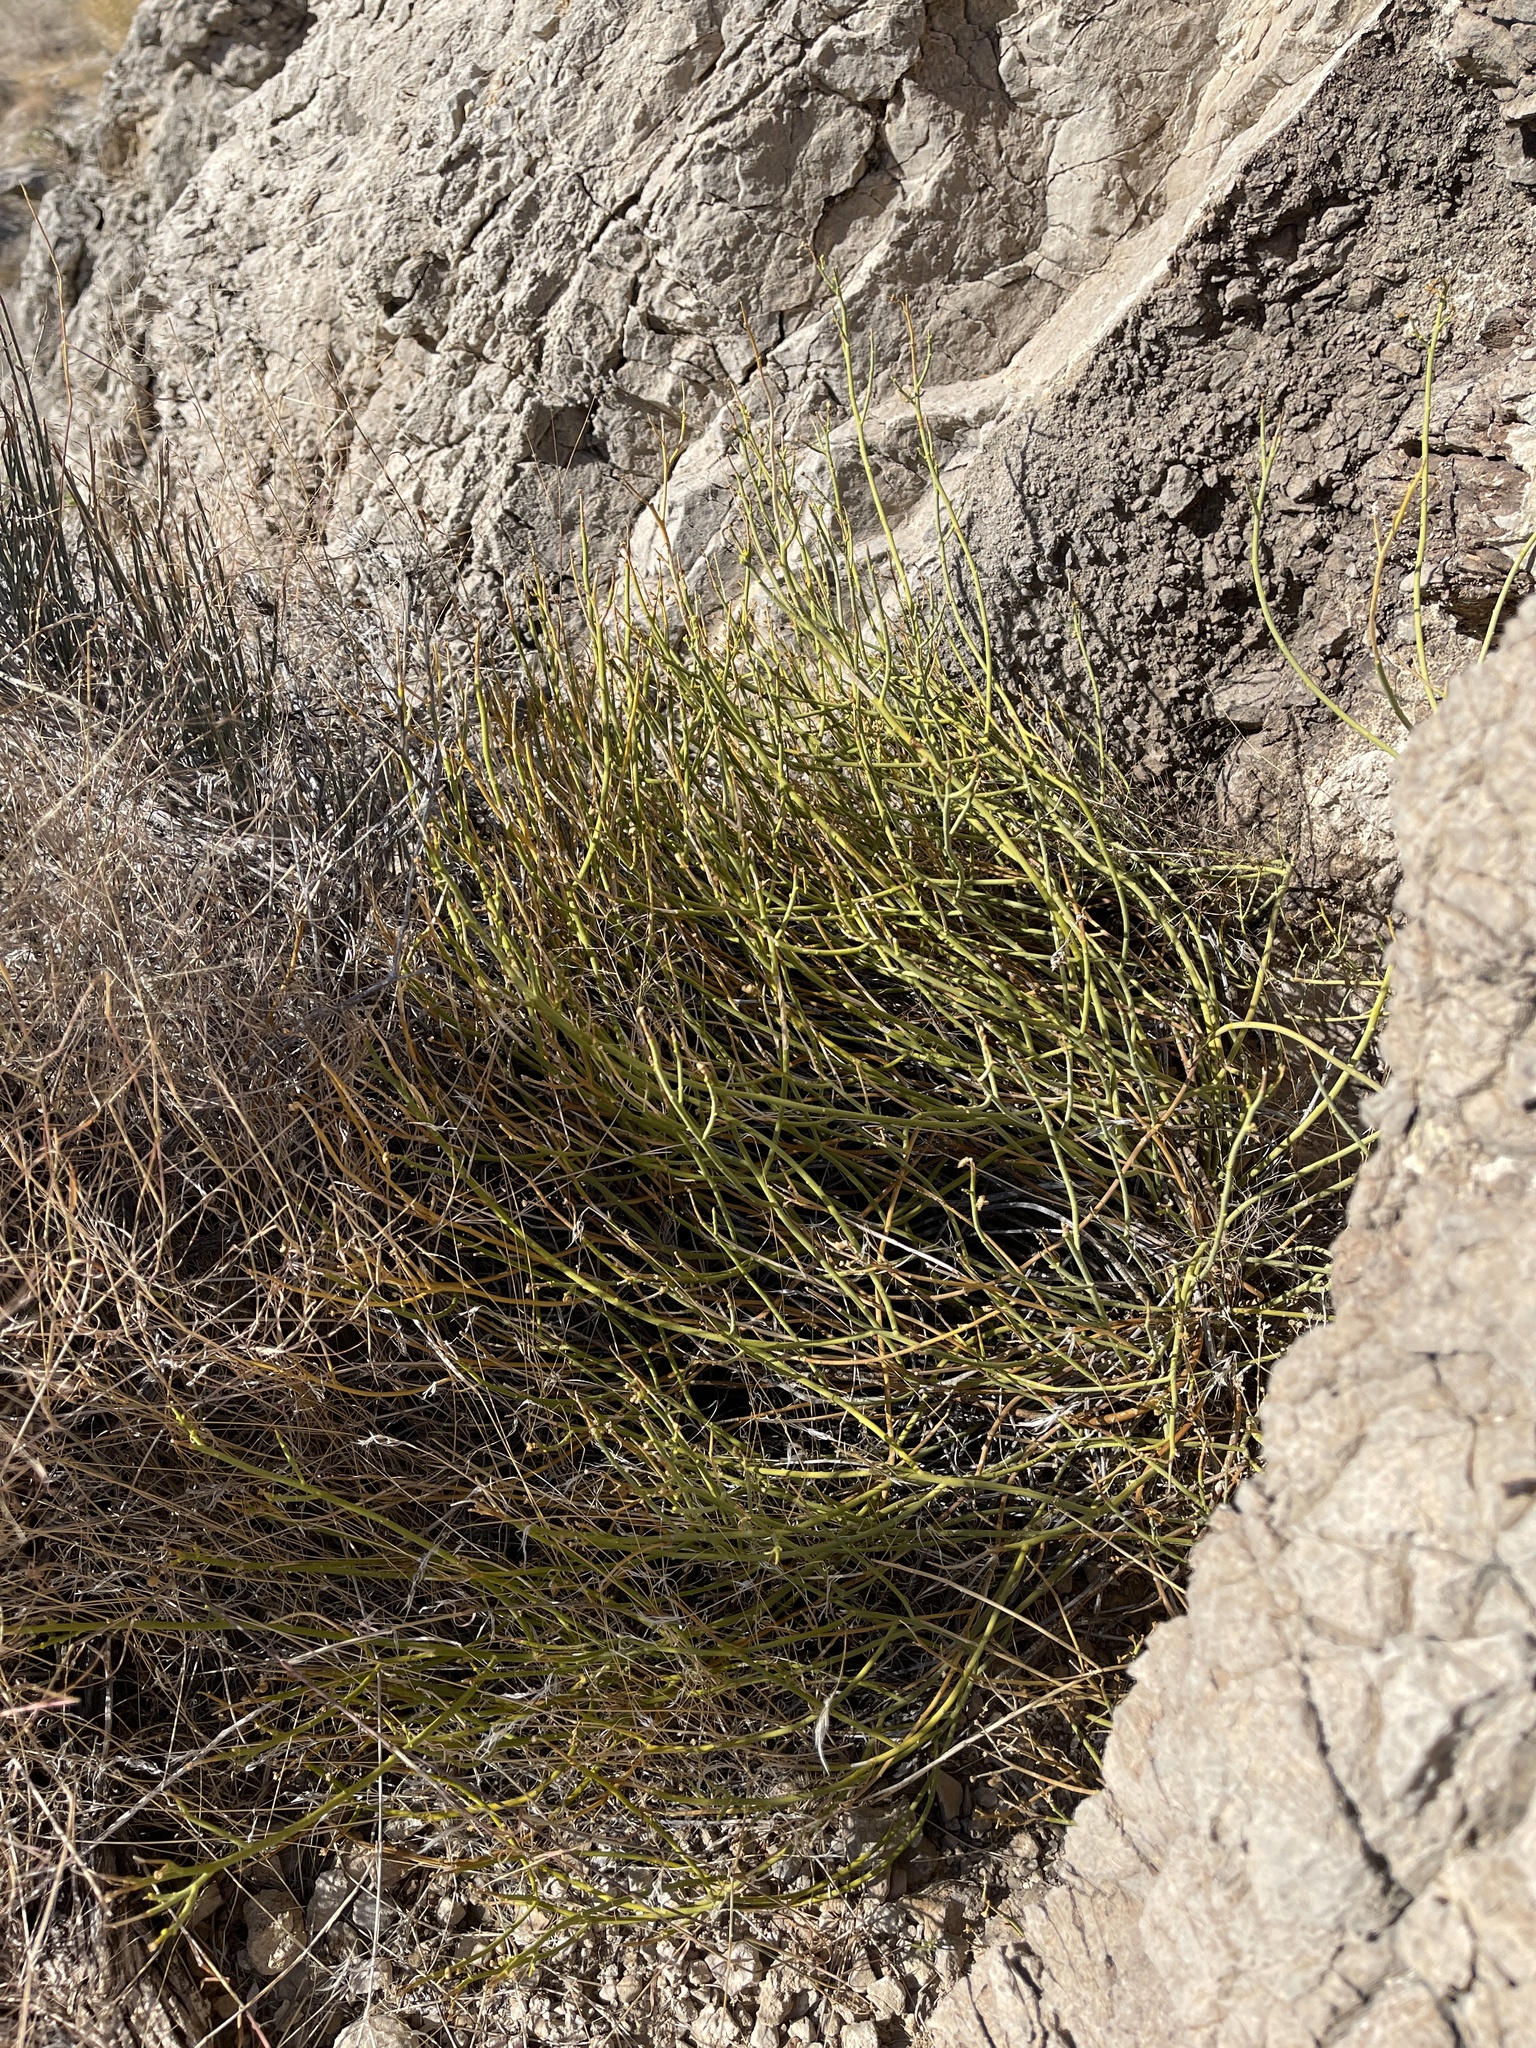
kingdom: Plantae
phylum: Tracheophyta
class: Magnoliopsida
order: Sapindales
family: Rutaceae
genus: Thamnosma
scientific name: Thamnosma montana
